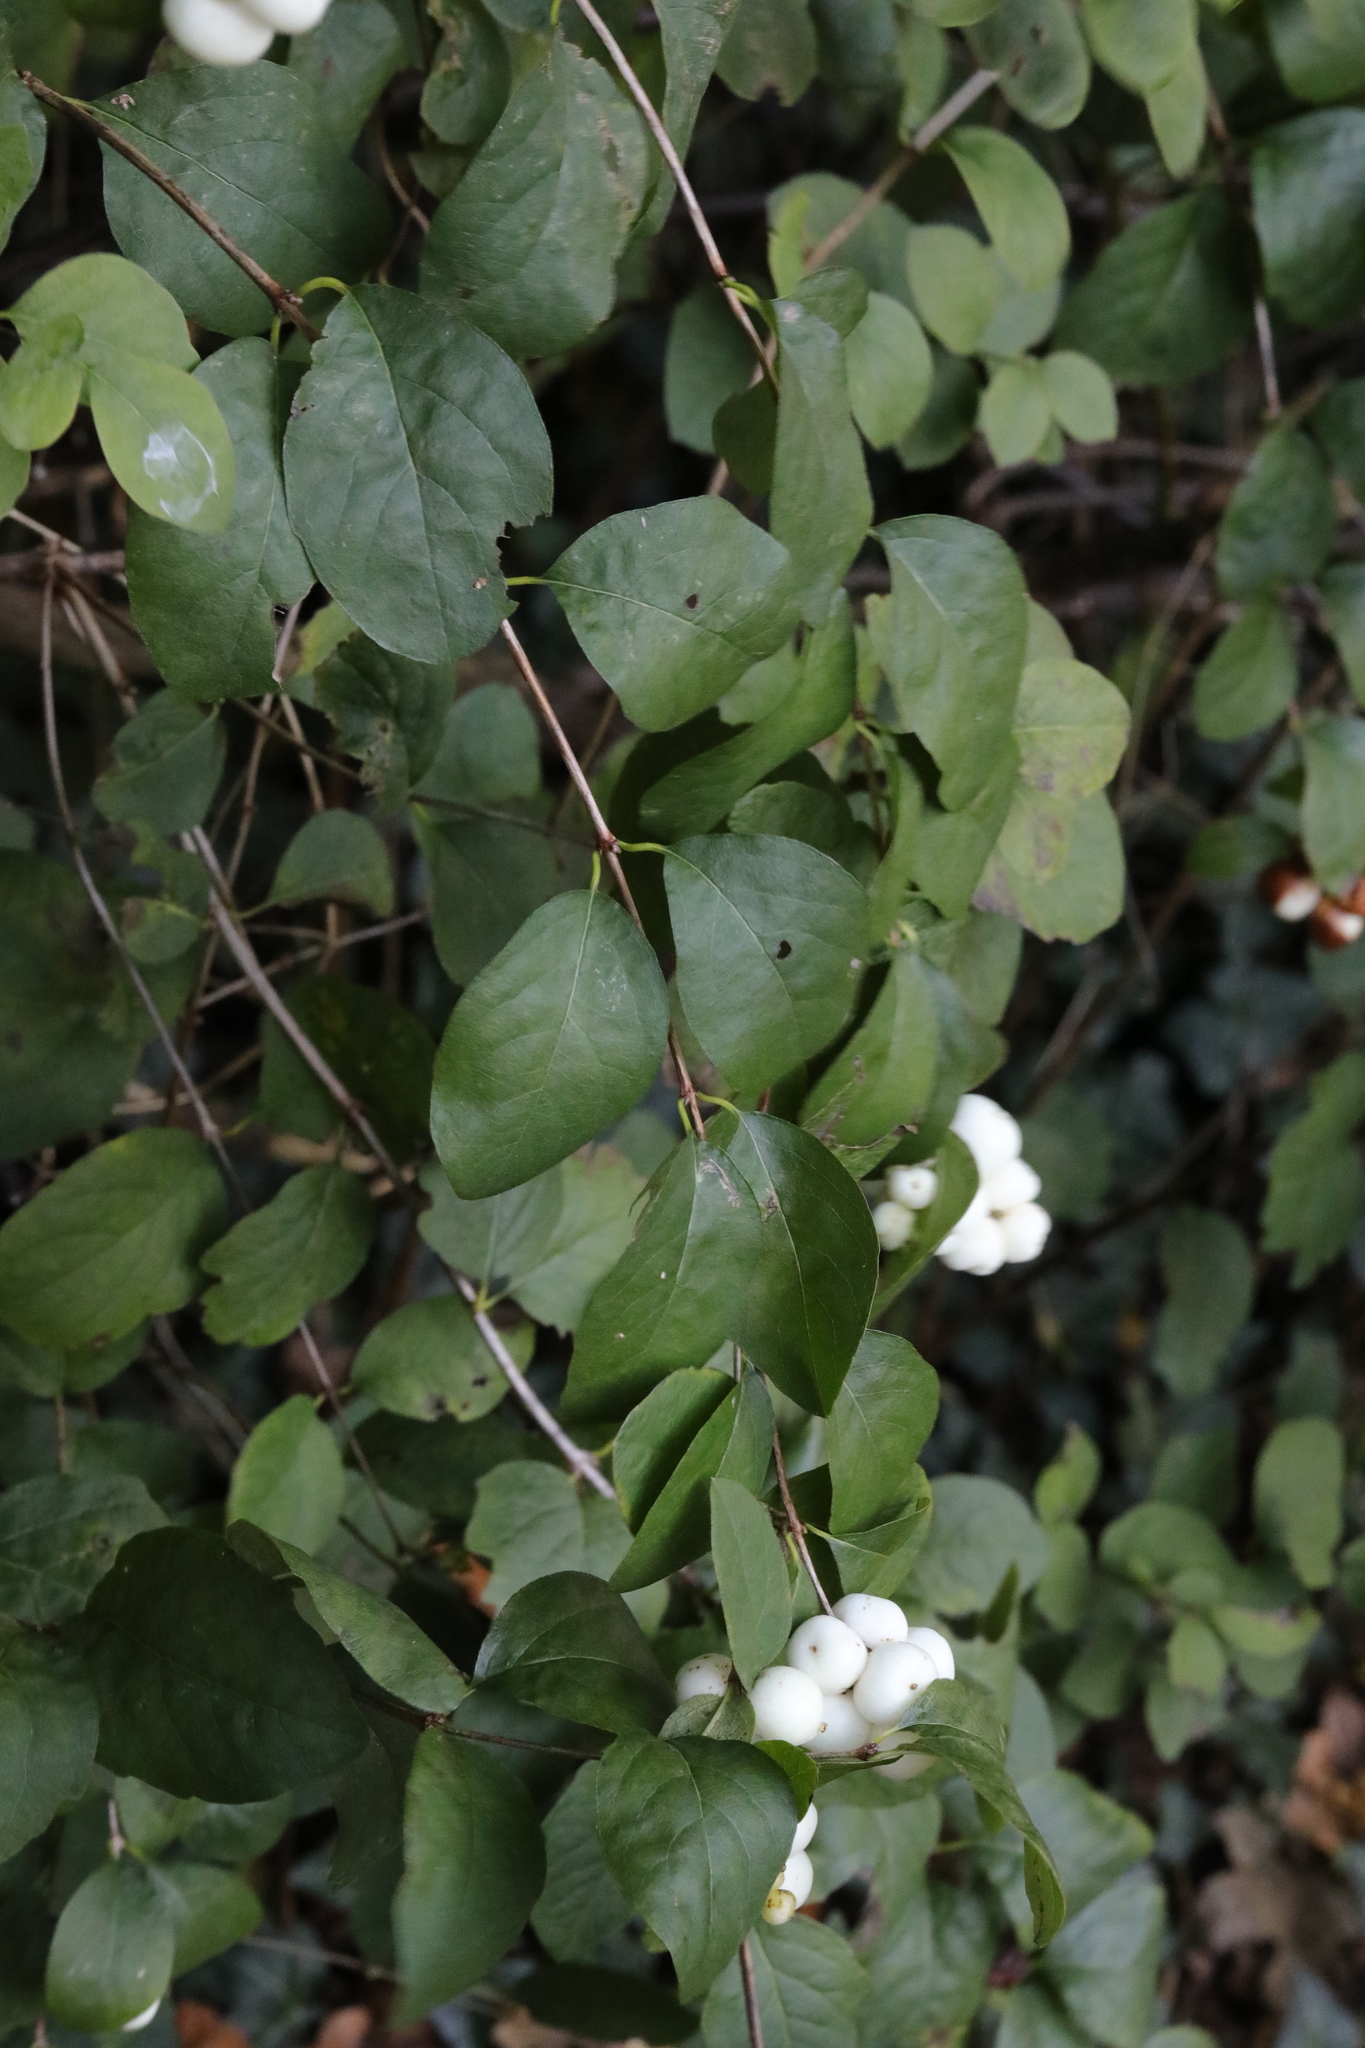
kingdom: Plantae
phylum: Tracheophyta
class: Magnoliopsida
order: Dipsacales
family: Caprifoliaceae
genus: Symphoricarpos
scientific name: Symphoricarpos albus
